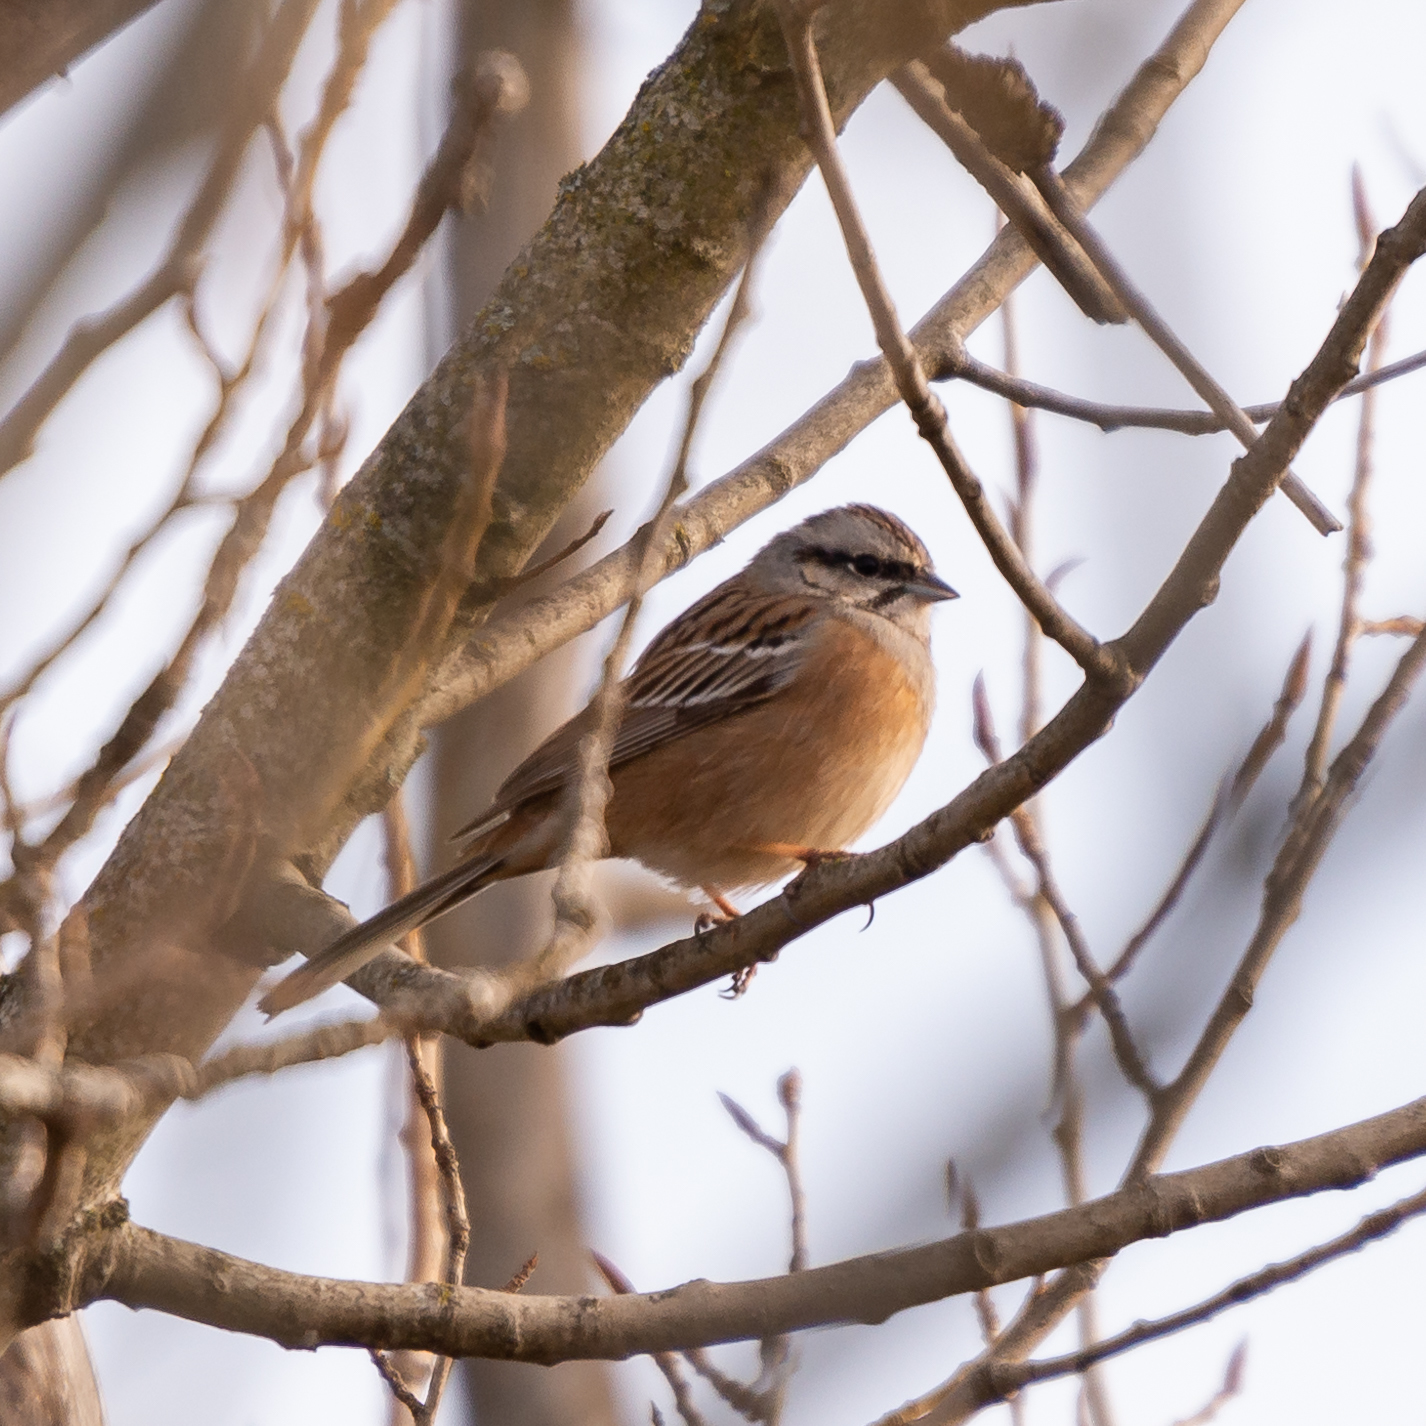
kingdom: Animalia
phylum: Chordata
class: Aves
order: Passeriformes
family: Emberizidae
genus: Emberiza
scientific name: Emberiza cia
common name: Rock bunting
